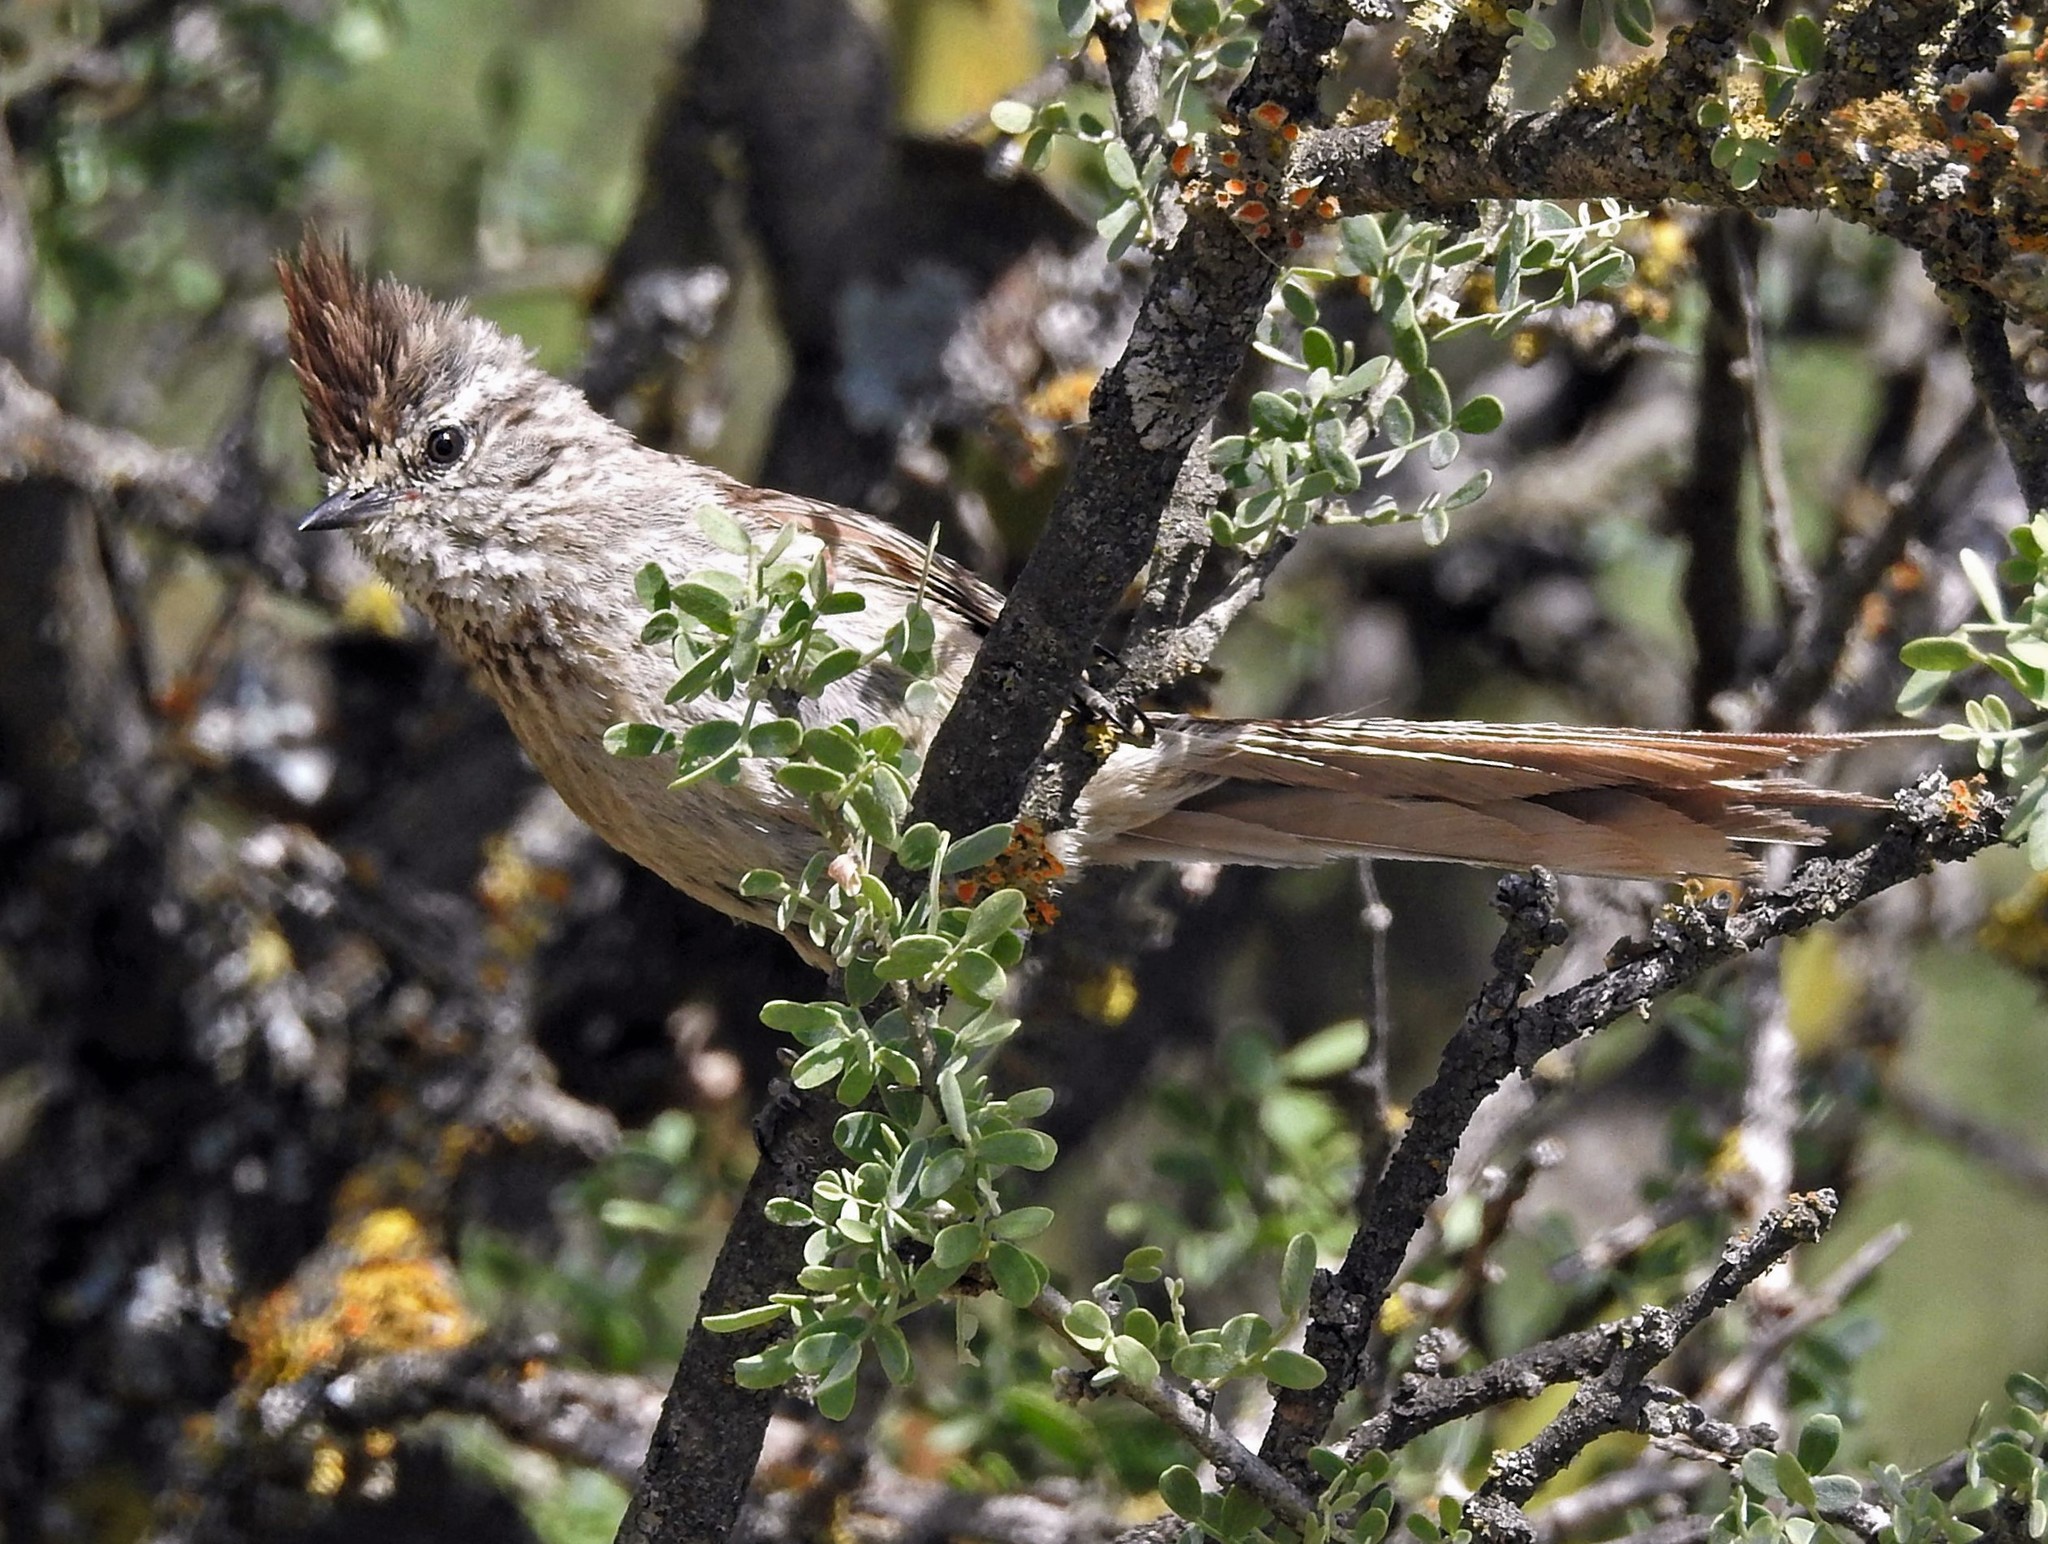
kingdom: Animalia
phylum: Chordata
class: Aves
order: Passeriformes
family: Furnariidae
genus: Leptasthenura
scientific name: Leptasthenura platensis
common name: Tufted tit-spinetail
